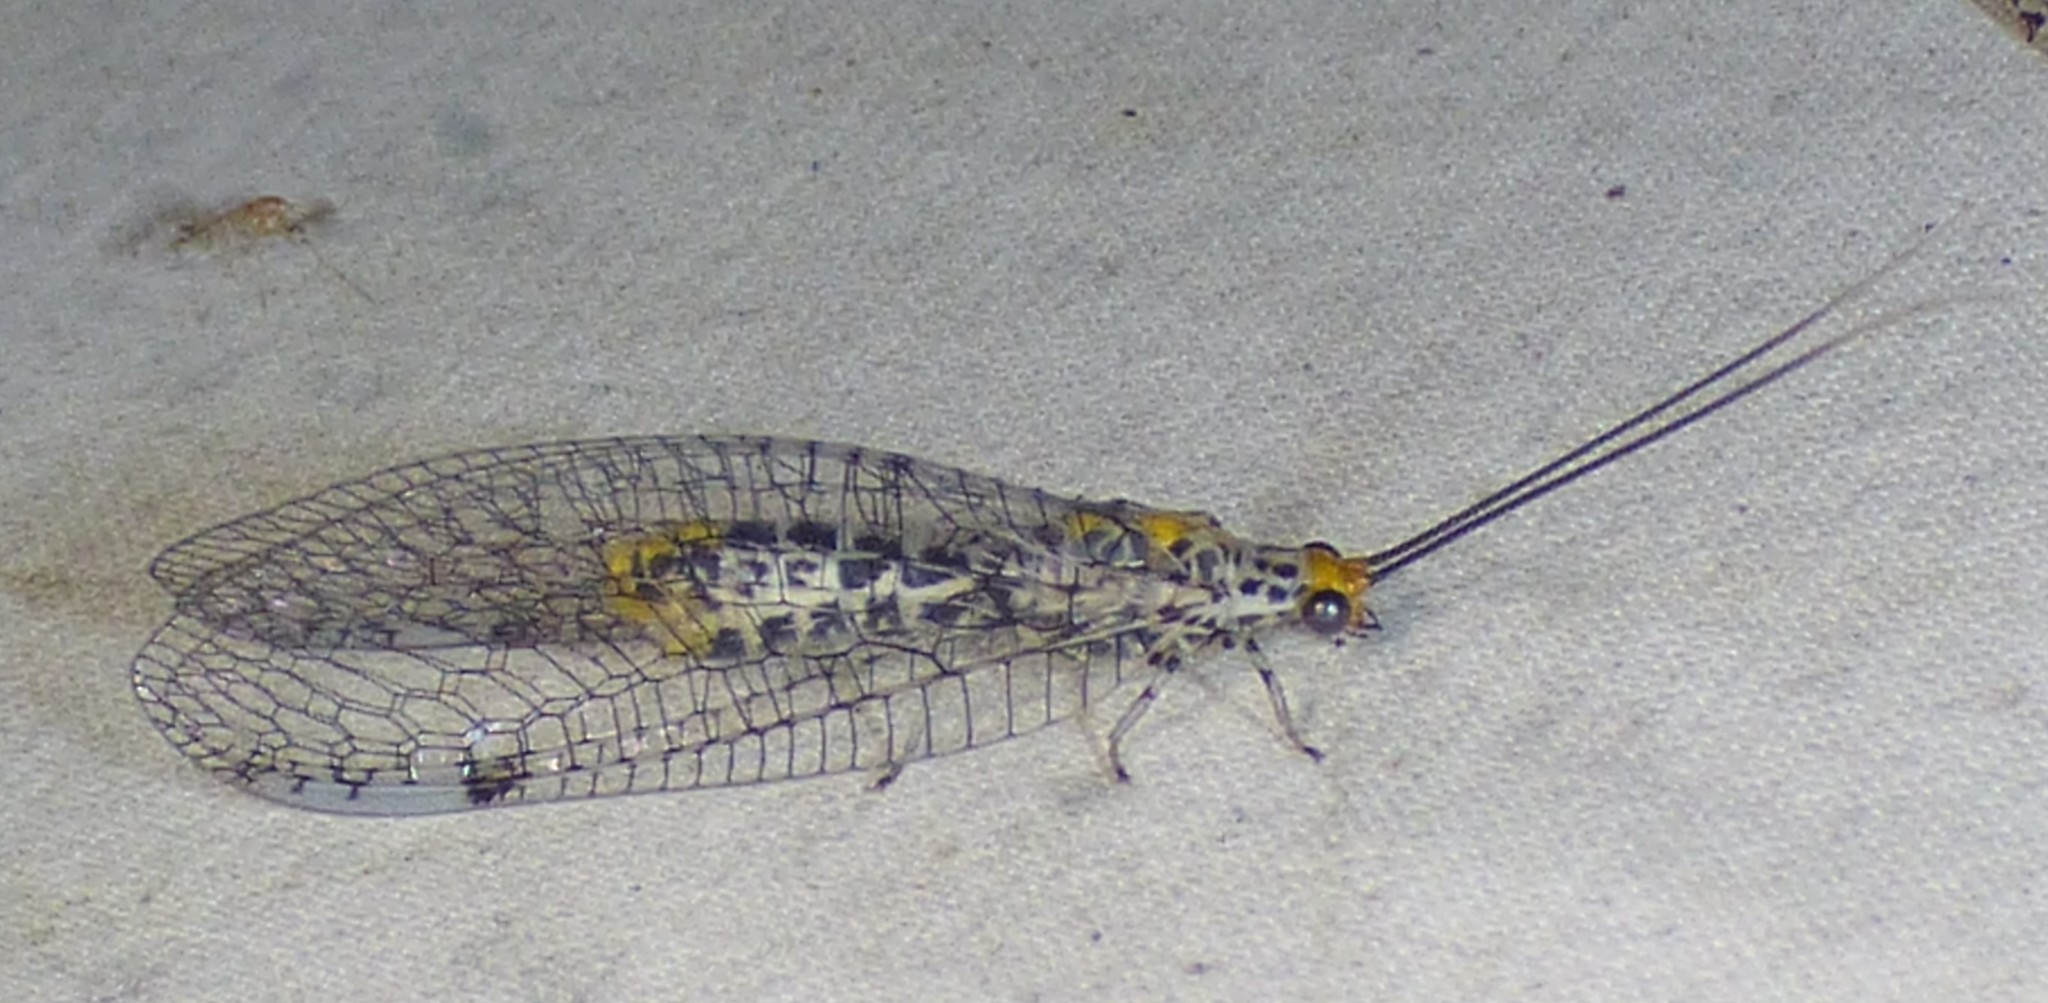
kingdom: Animalia
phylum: Arthropoda
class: Insecta
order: Neuroptera
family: Chrysopidae
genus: Abachrysa
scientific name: Abachrysa eureka
